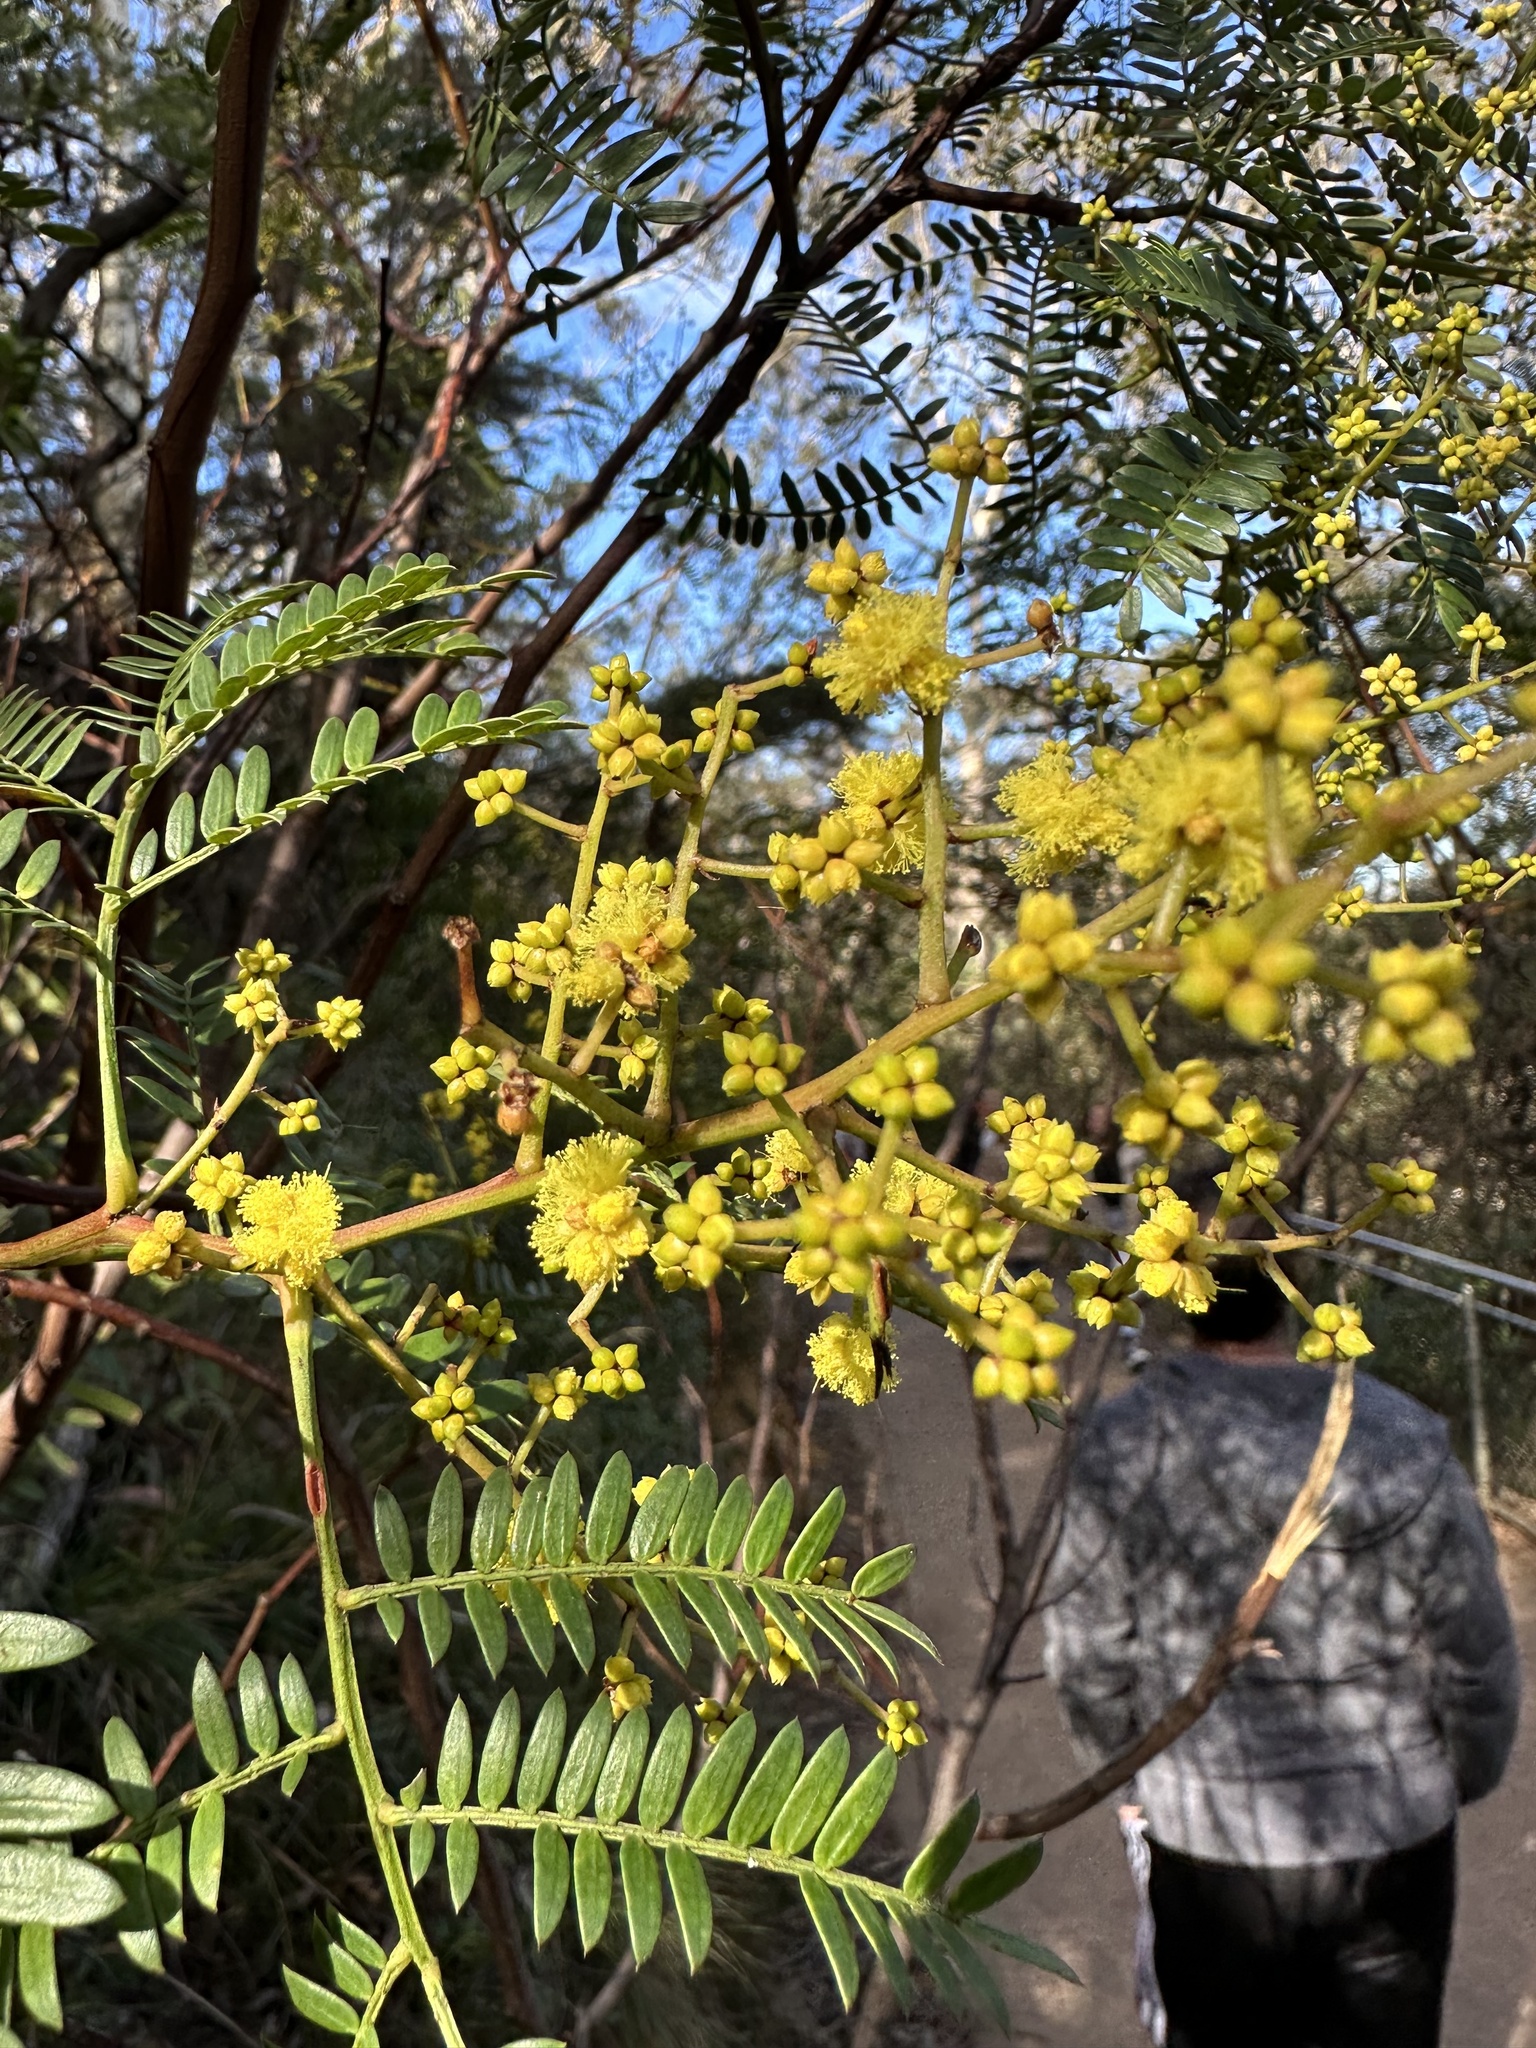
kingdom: Plantae
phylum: Tracheophyta
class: Magnoliopsida
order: Fabales
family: Fabaceae
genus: Acacia
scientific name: Acacia terminalis
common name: Cedar wattle
